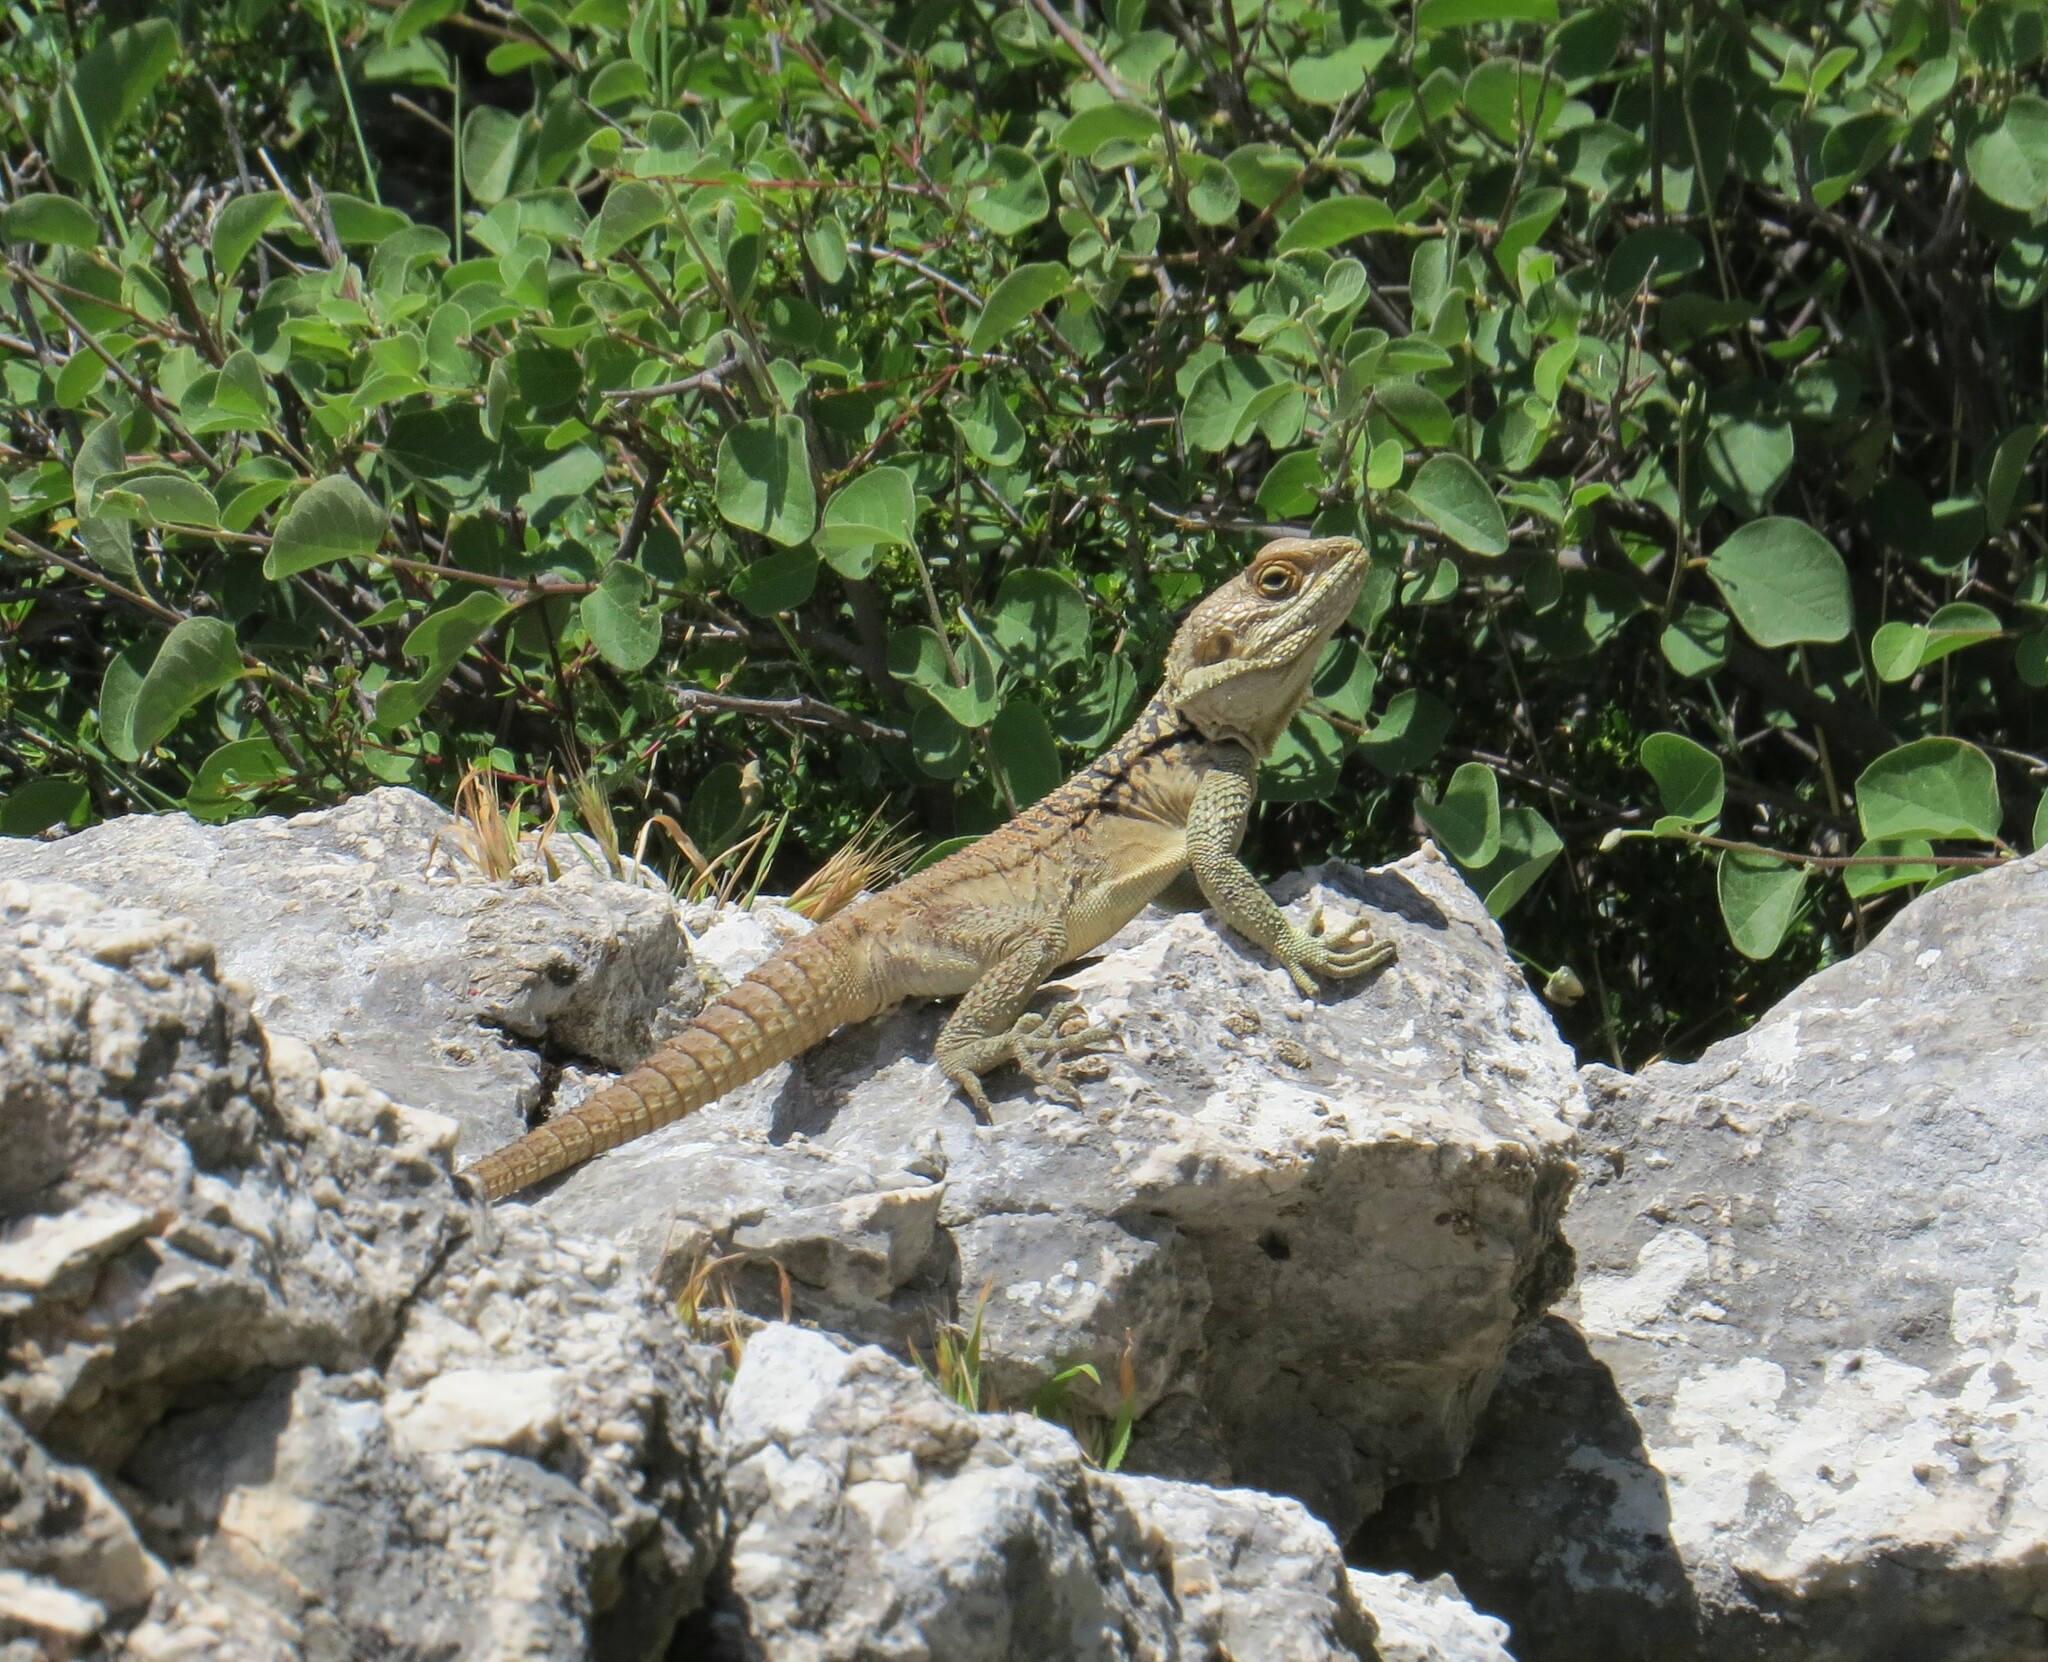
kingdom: Animalia
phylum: Chordata
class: Squamata
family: Agamidae
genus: Laudakia
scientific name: Laudakia
